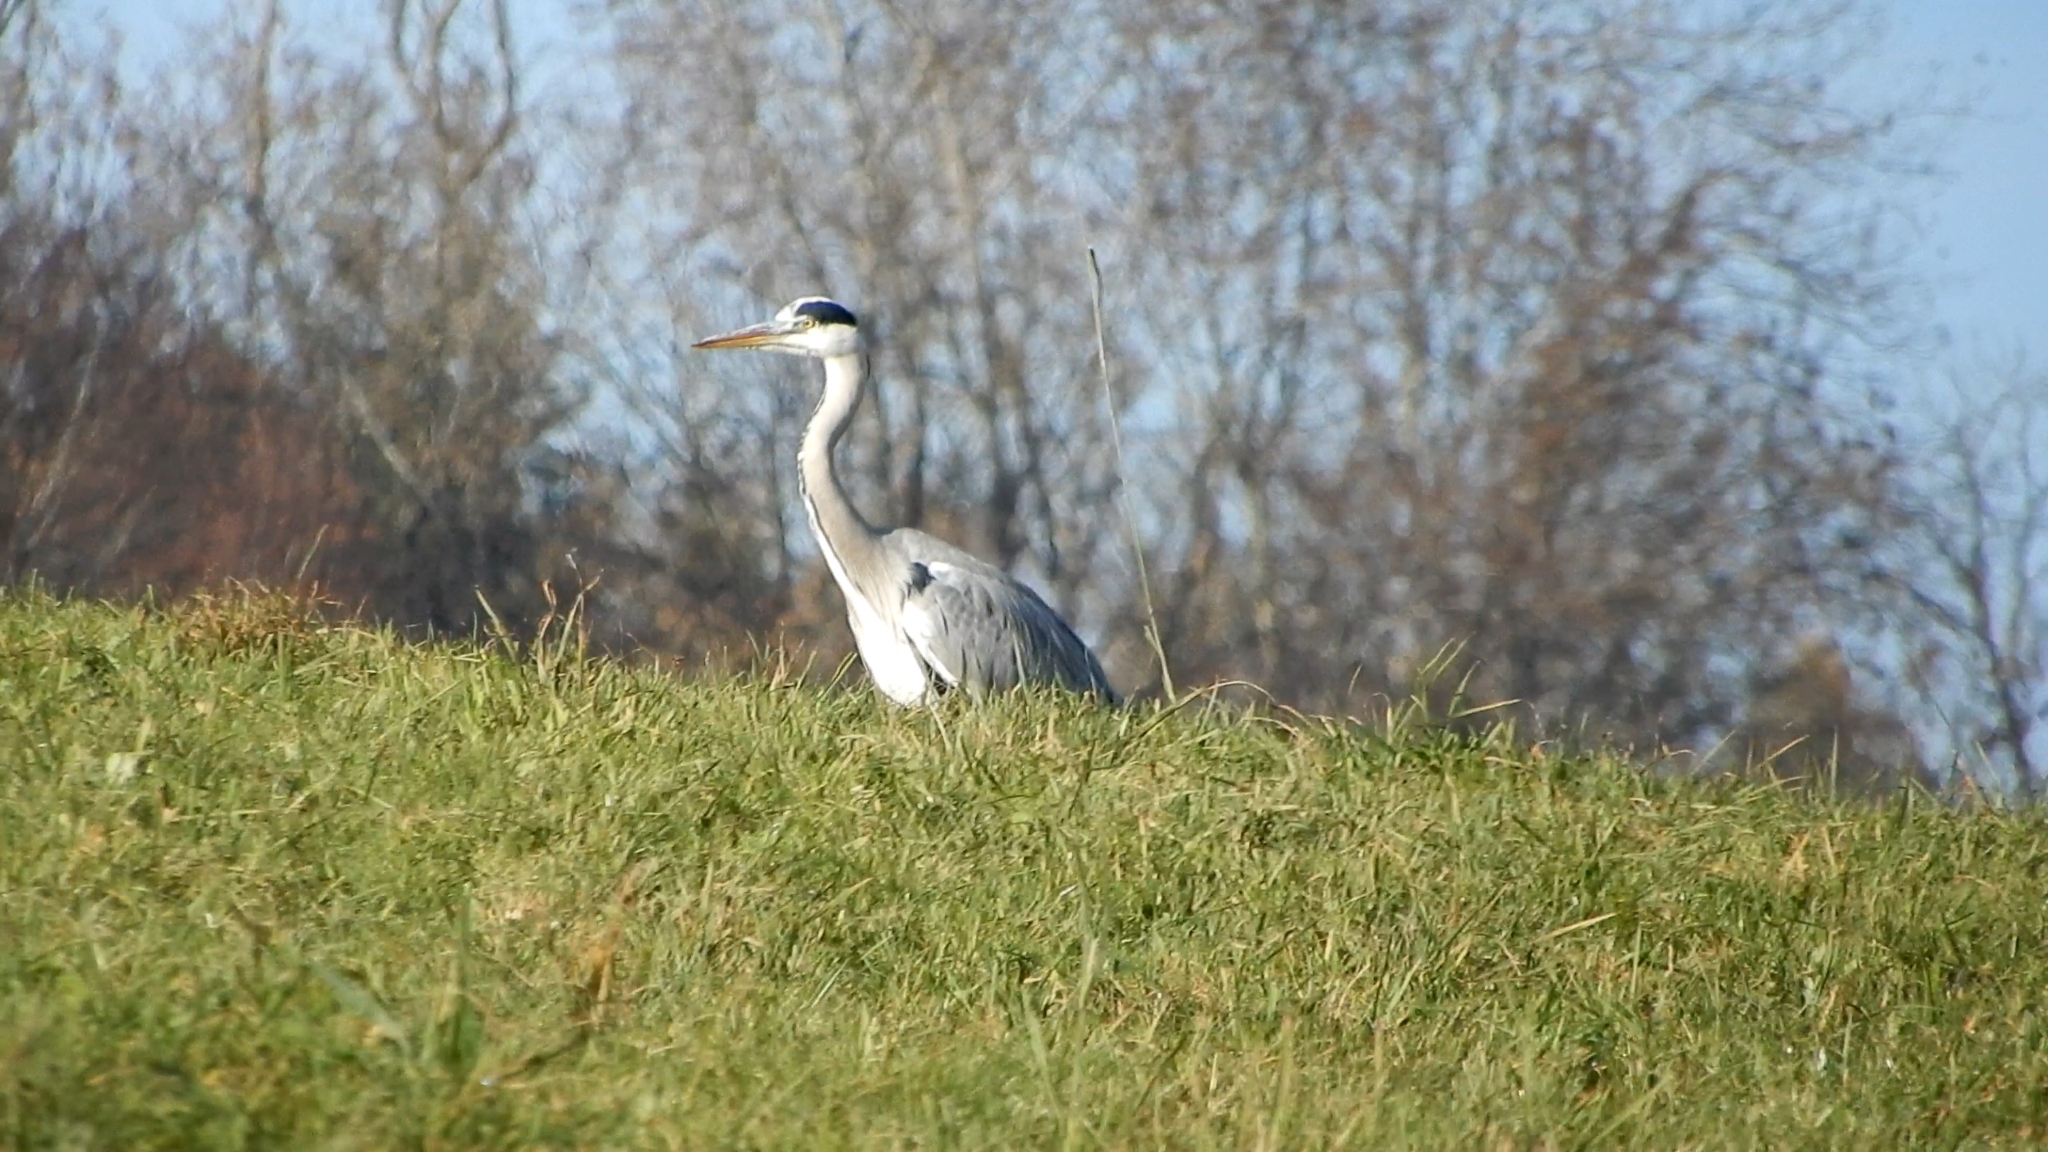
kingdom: Animalia
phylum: Chordata
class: Aves
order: Pelecaniformes
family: Ardeidae
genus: Ardea
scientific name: Ardea cinerea
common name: Grey heron
